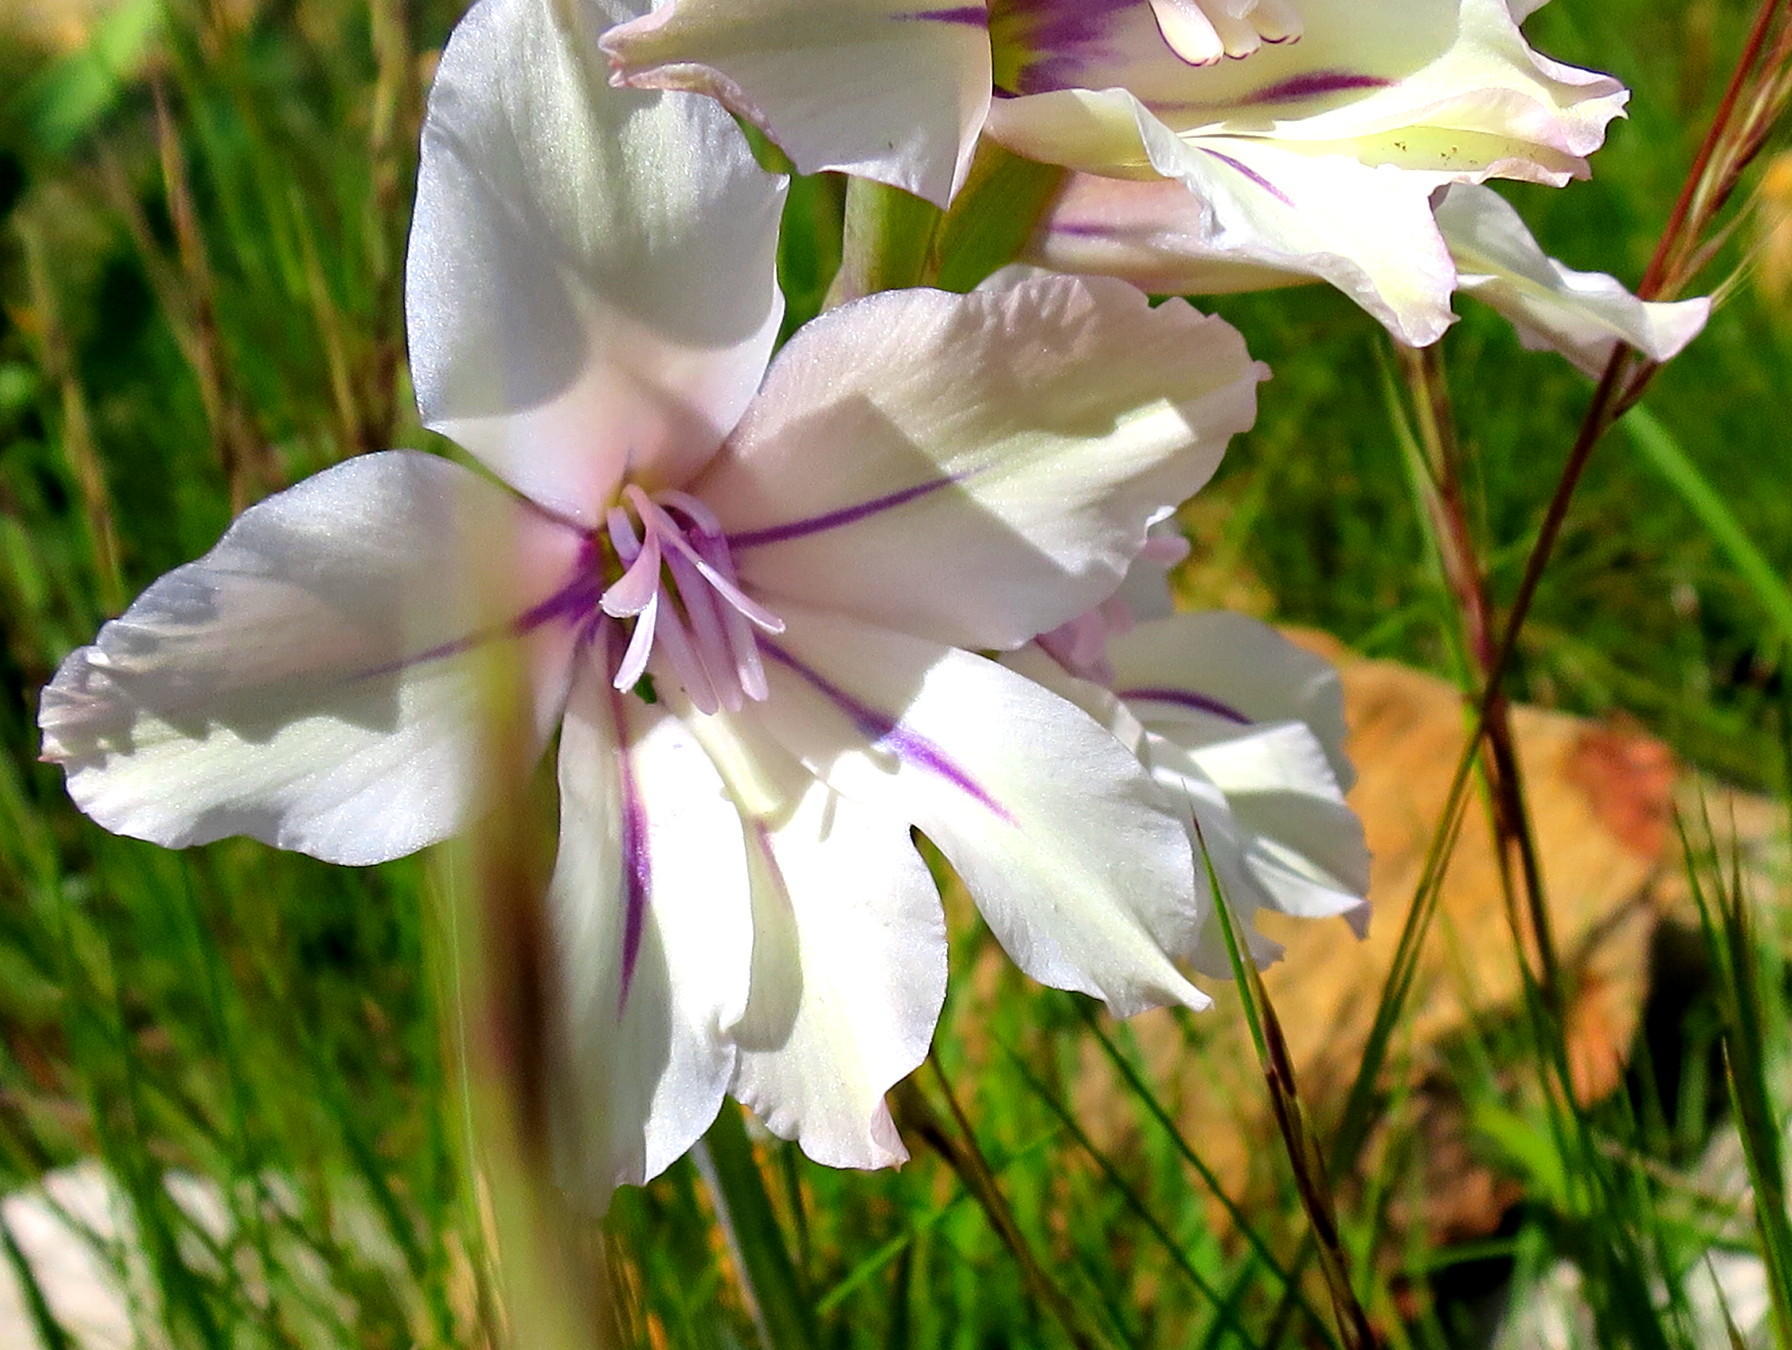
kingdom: Plantae
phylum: Tracheophyta
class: Liliopsida
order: Asparagales
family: Iridaceae
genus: Gladiolus
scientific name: Gladiolus floribundus
